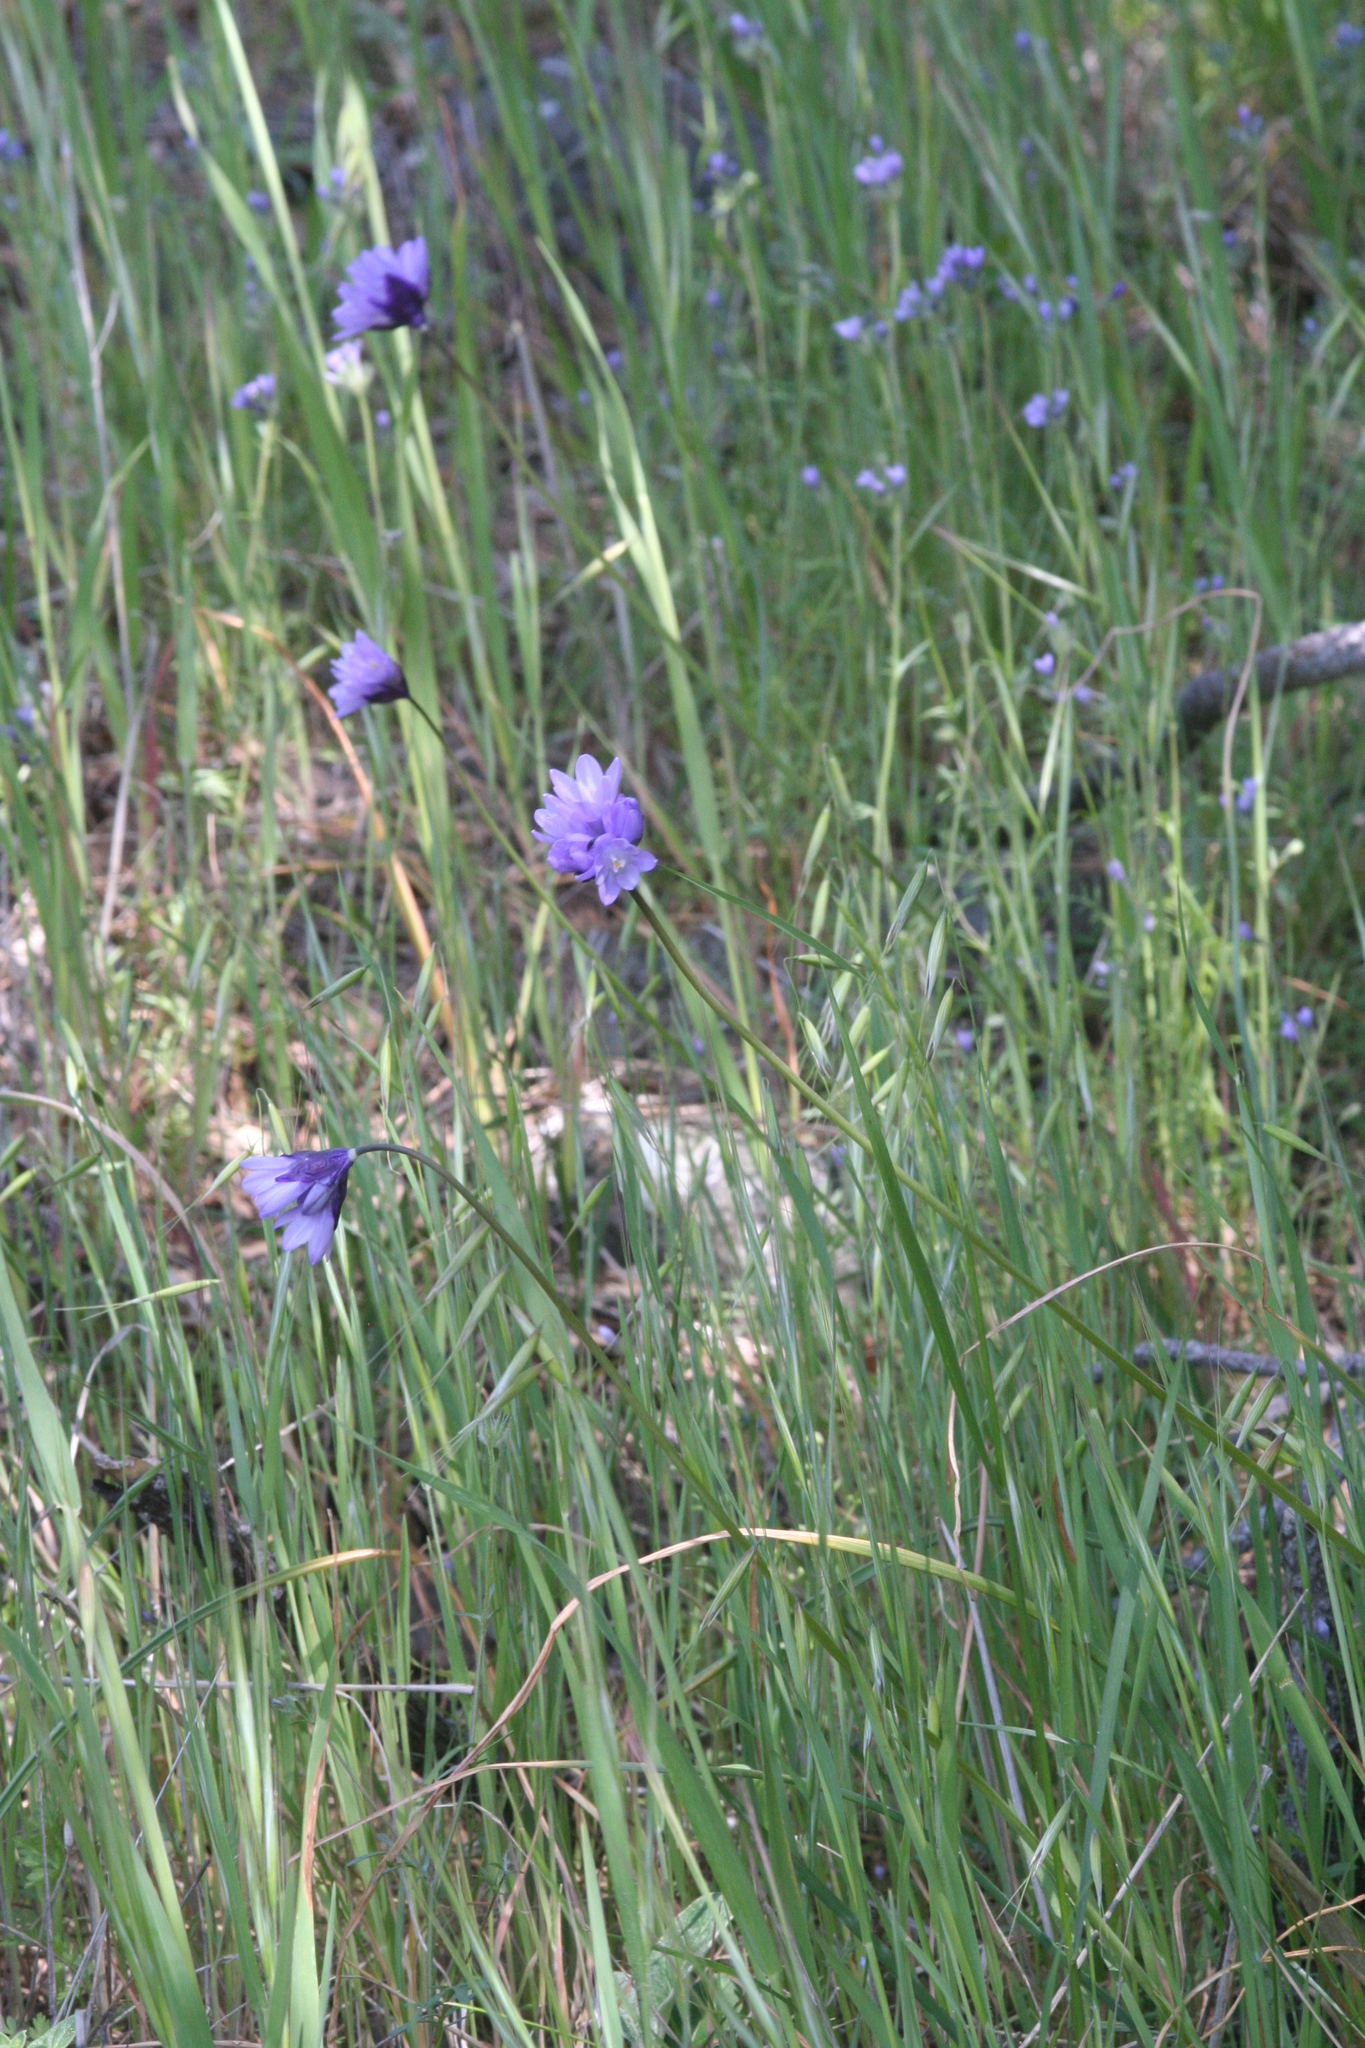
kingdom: Plantae
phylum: Tracheophyta
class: Liliopsida
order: Asparagales
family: Asparagaceae
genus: Dipterostemon
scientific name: Dipterostemon capitatus
